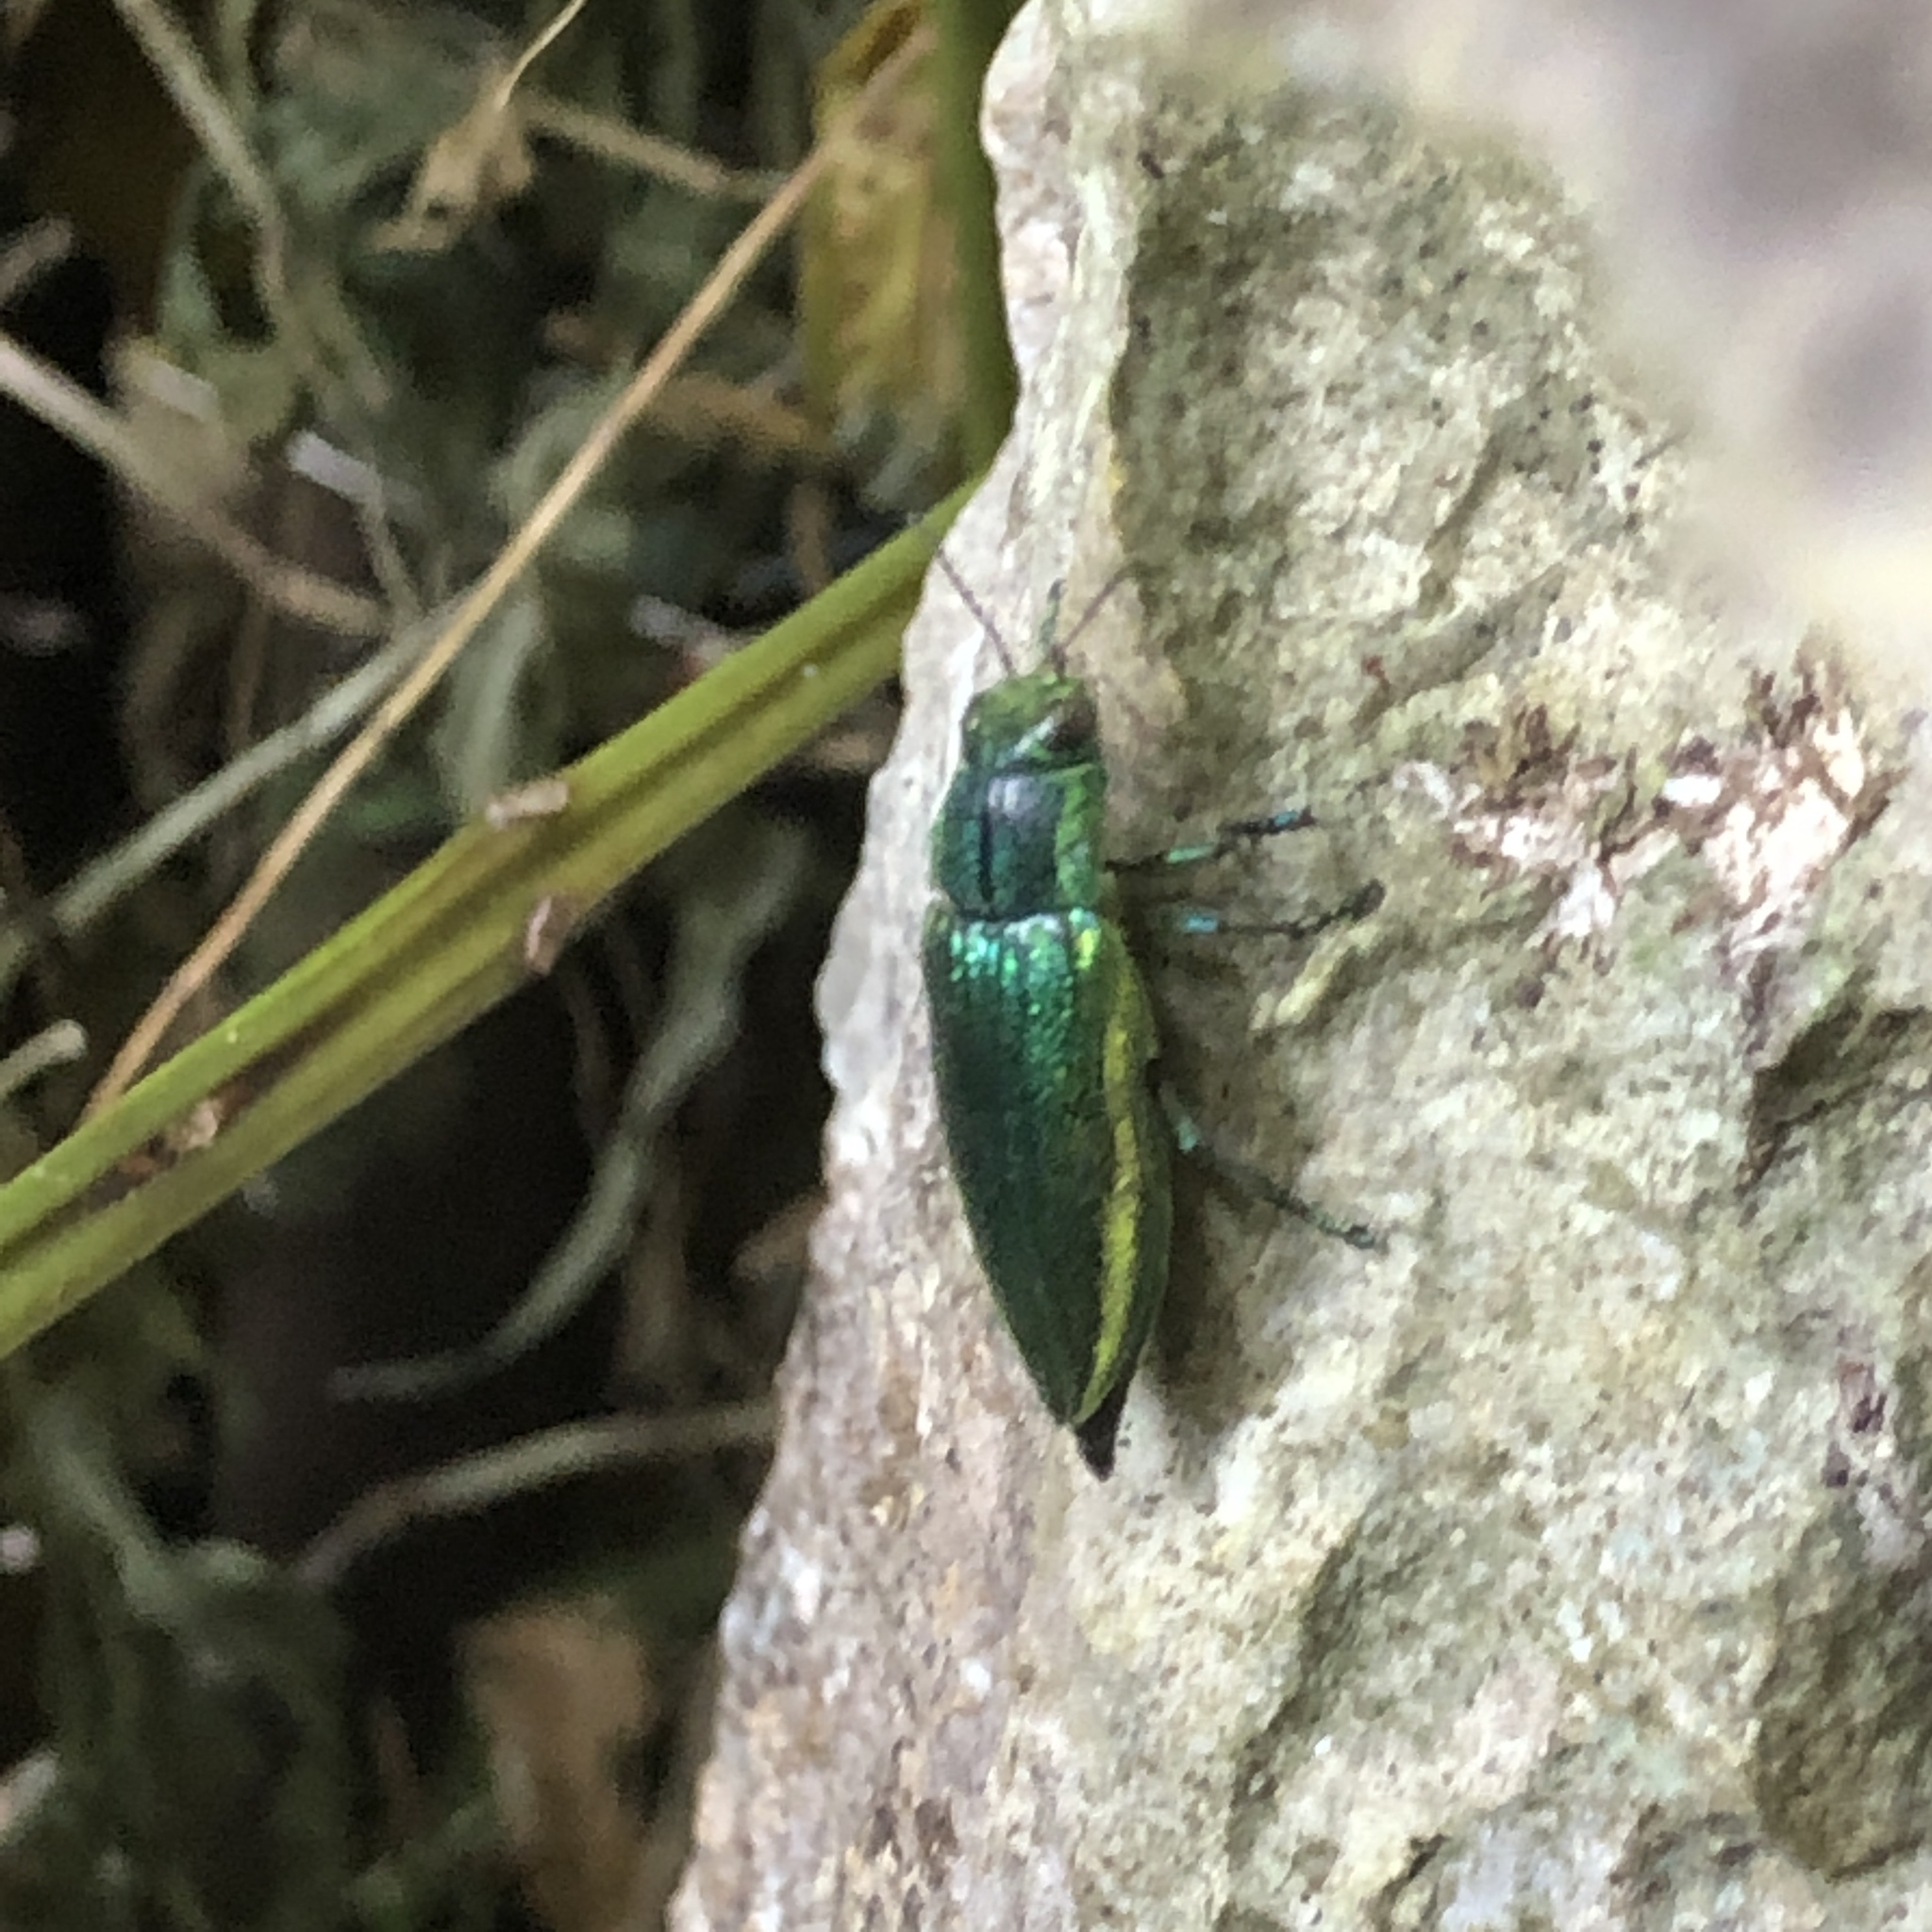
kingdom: Animalia
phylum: Arthropoda
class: Insecta
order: Coleoptera
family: Buprestidae
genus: Chrysodema
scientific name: Chrysodema lewisii
